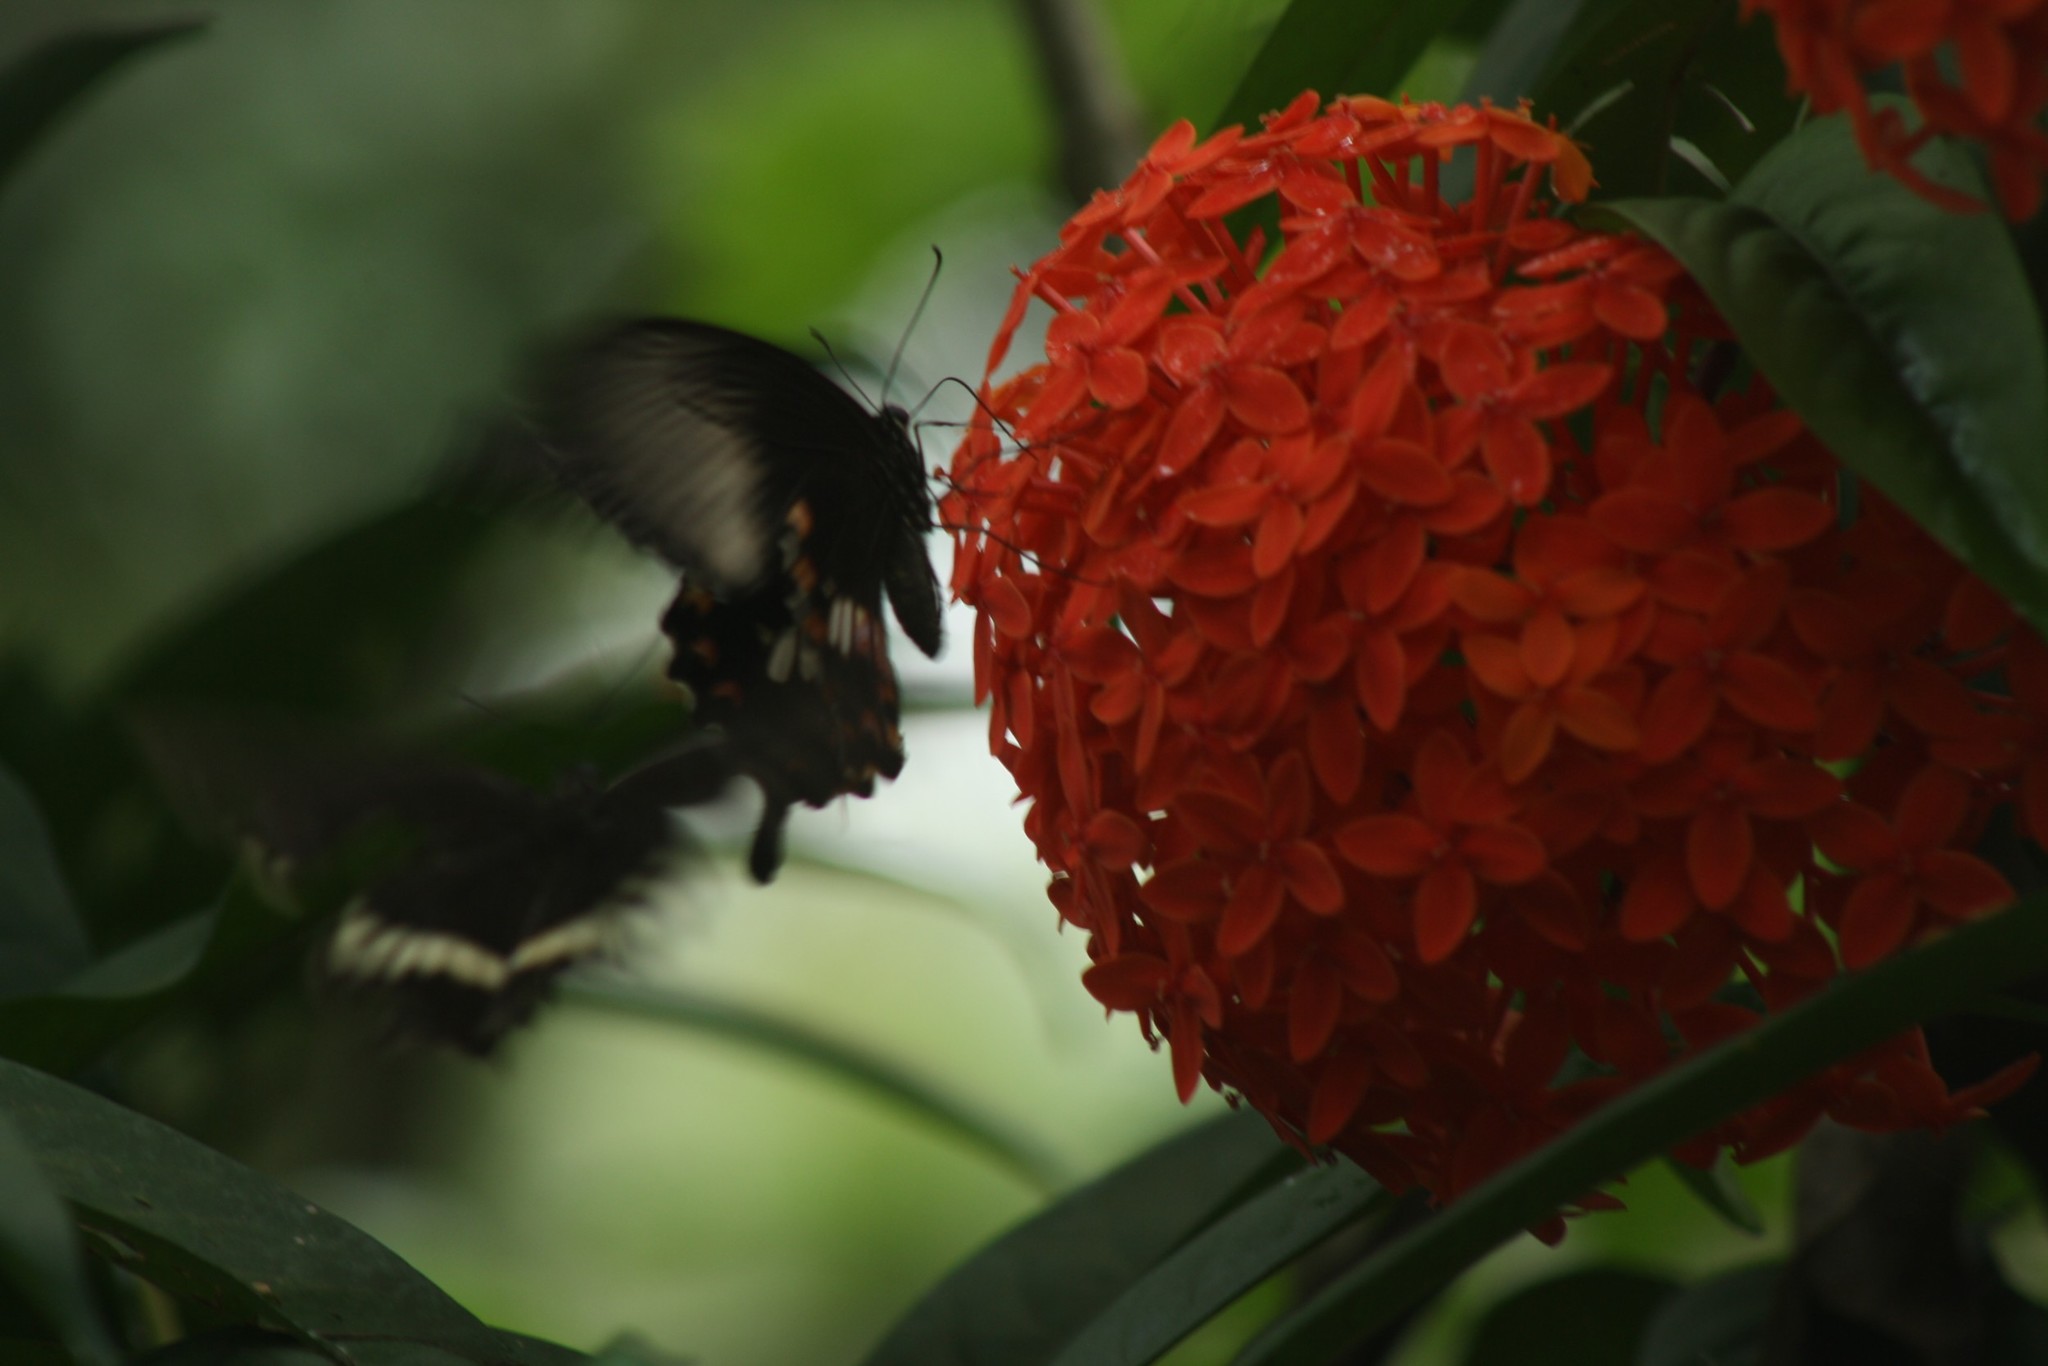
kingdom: Animalia
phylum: Arthropoda
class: Insecta
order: Lepidoptera
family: Papilionidae
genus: Papilio
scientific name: Papilio polytes
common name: Common mormon
